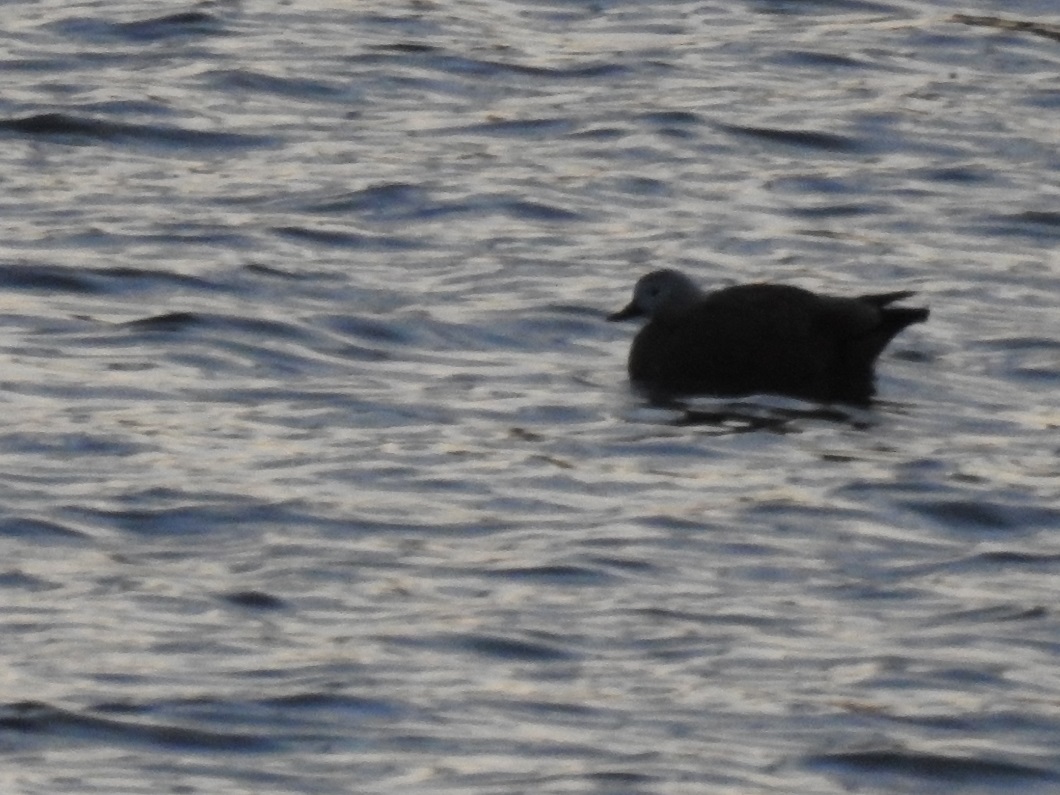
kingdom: Animalia
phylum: Chordata
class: Aves
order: Anseriformes
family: Anatidae
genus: Tadorna
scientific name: Tadorna ferruginea
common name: Ruddy shelduck
